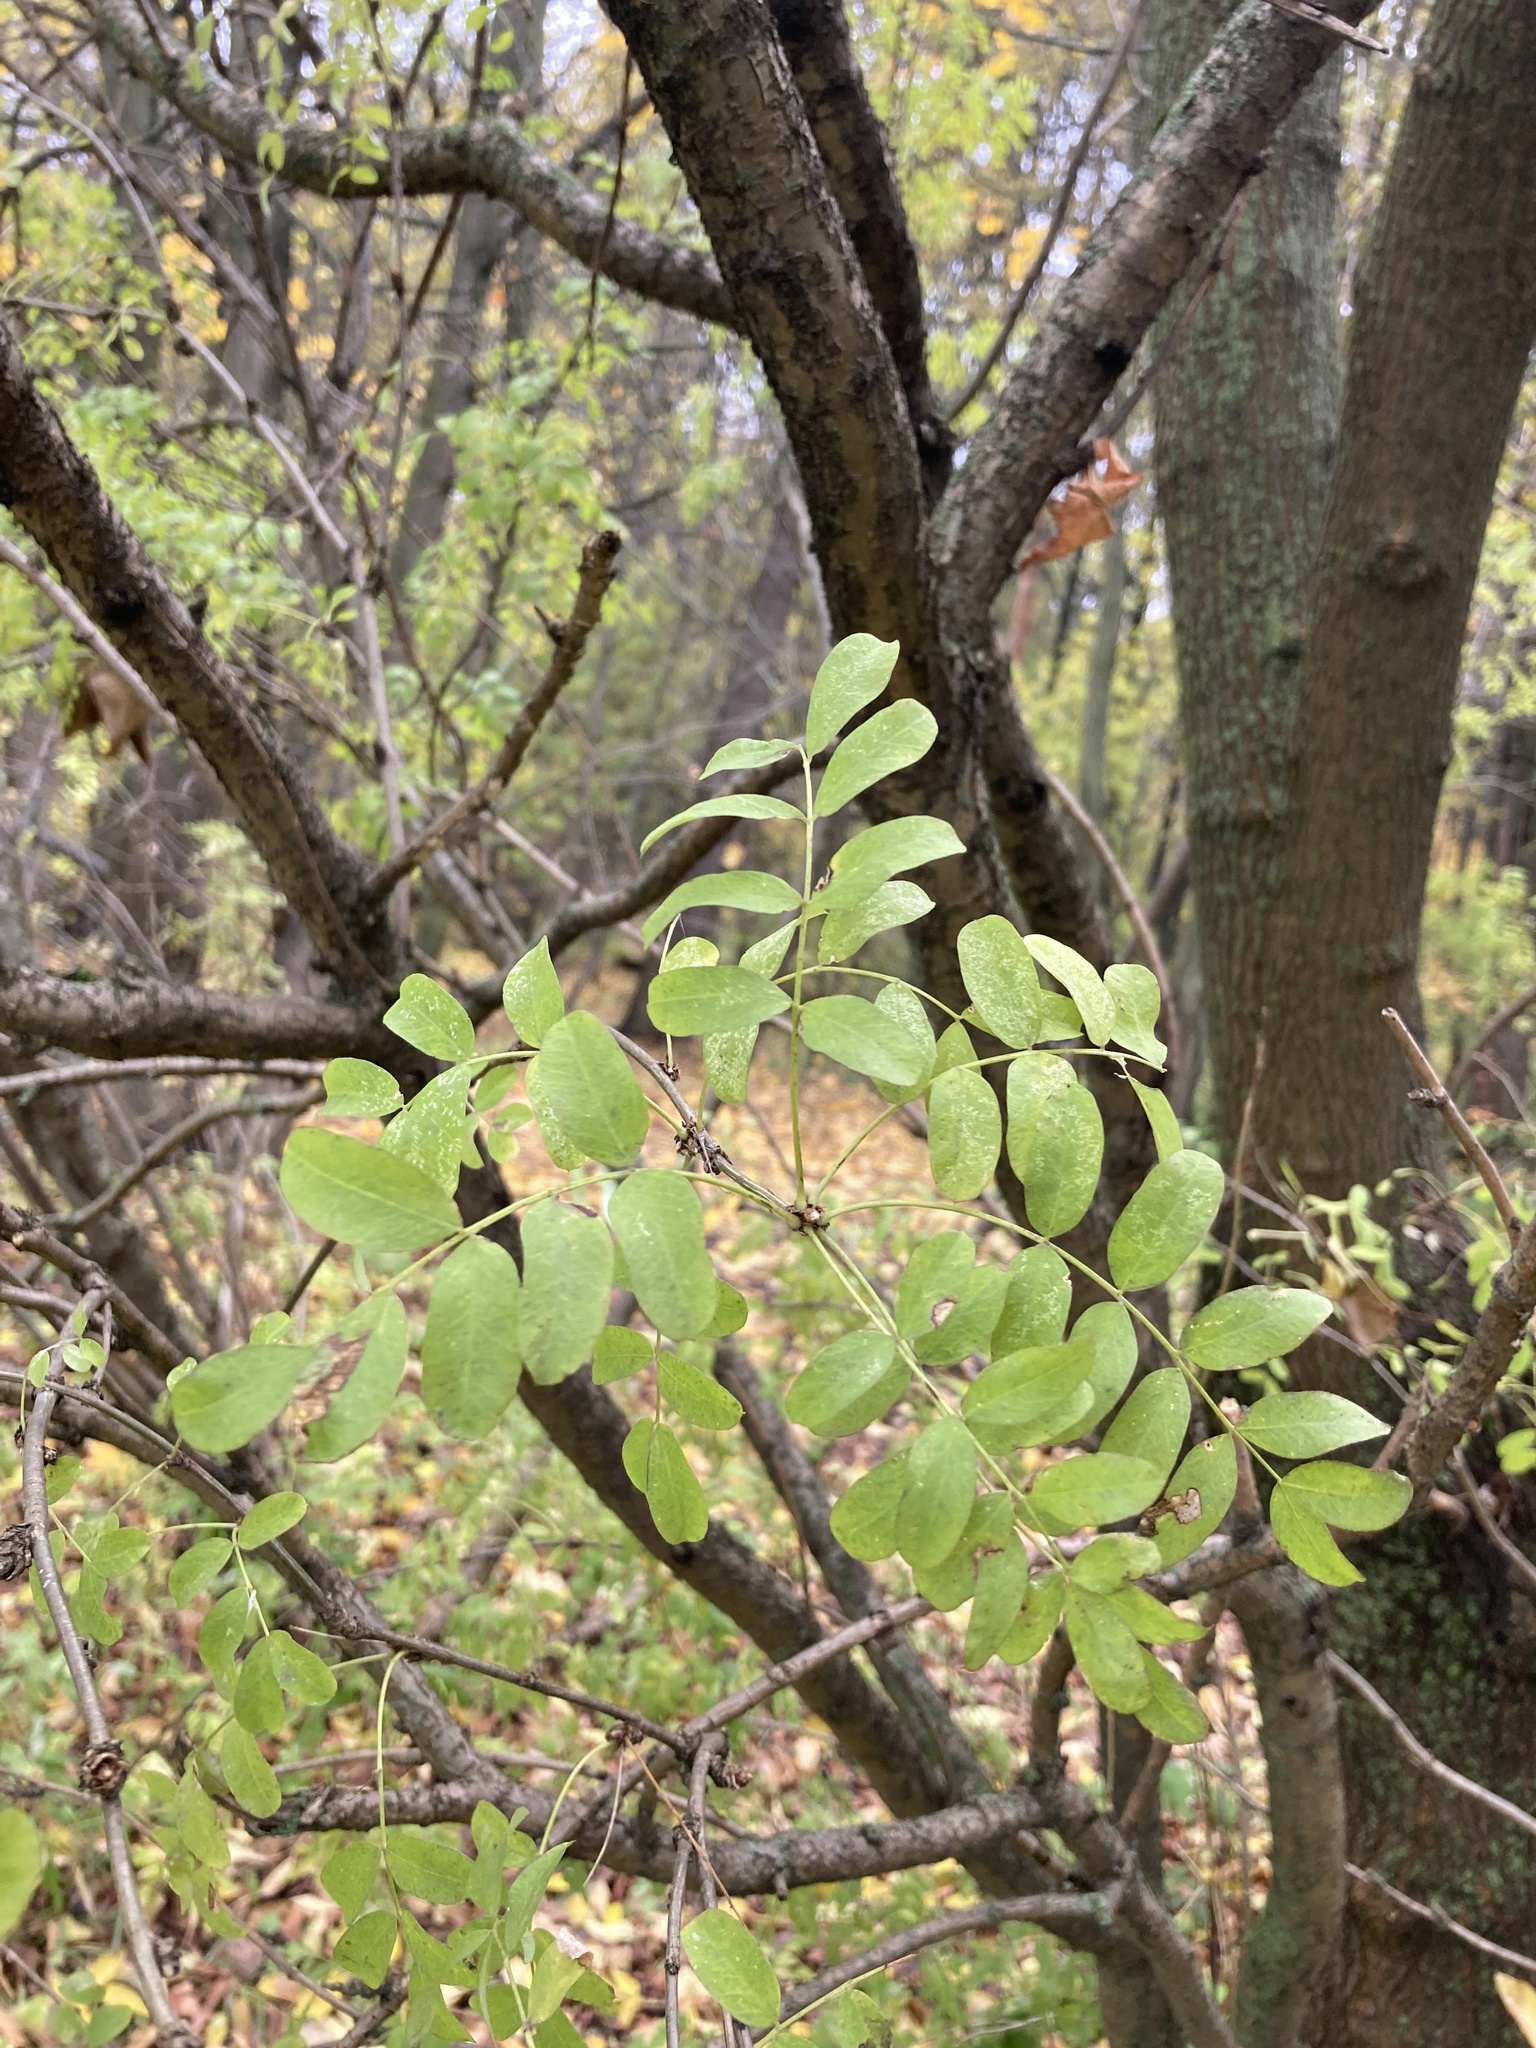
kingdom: Plantae
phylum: Tracheophyta
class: Magnoliopsida
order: Fabales
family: Fabaceae
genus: Caragana
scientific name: Caragana arborescens
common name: Siberian peashrub
